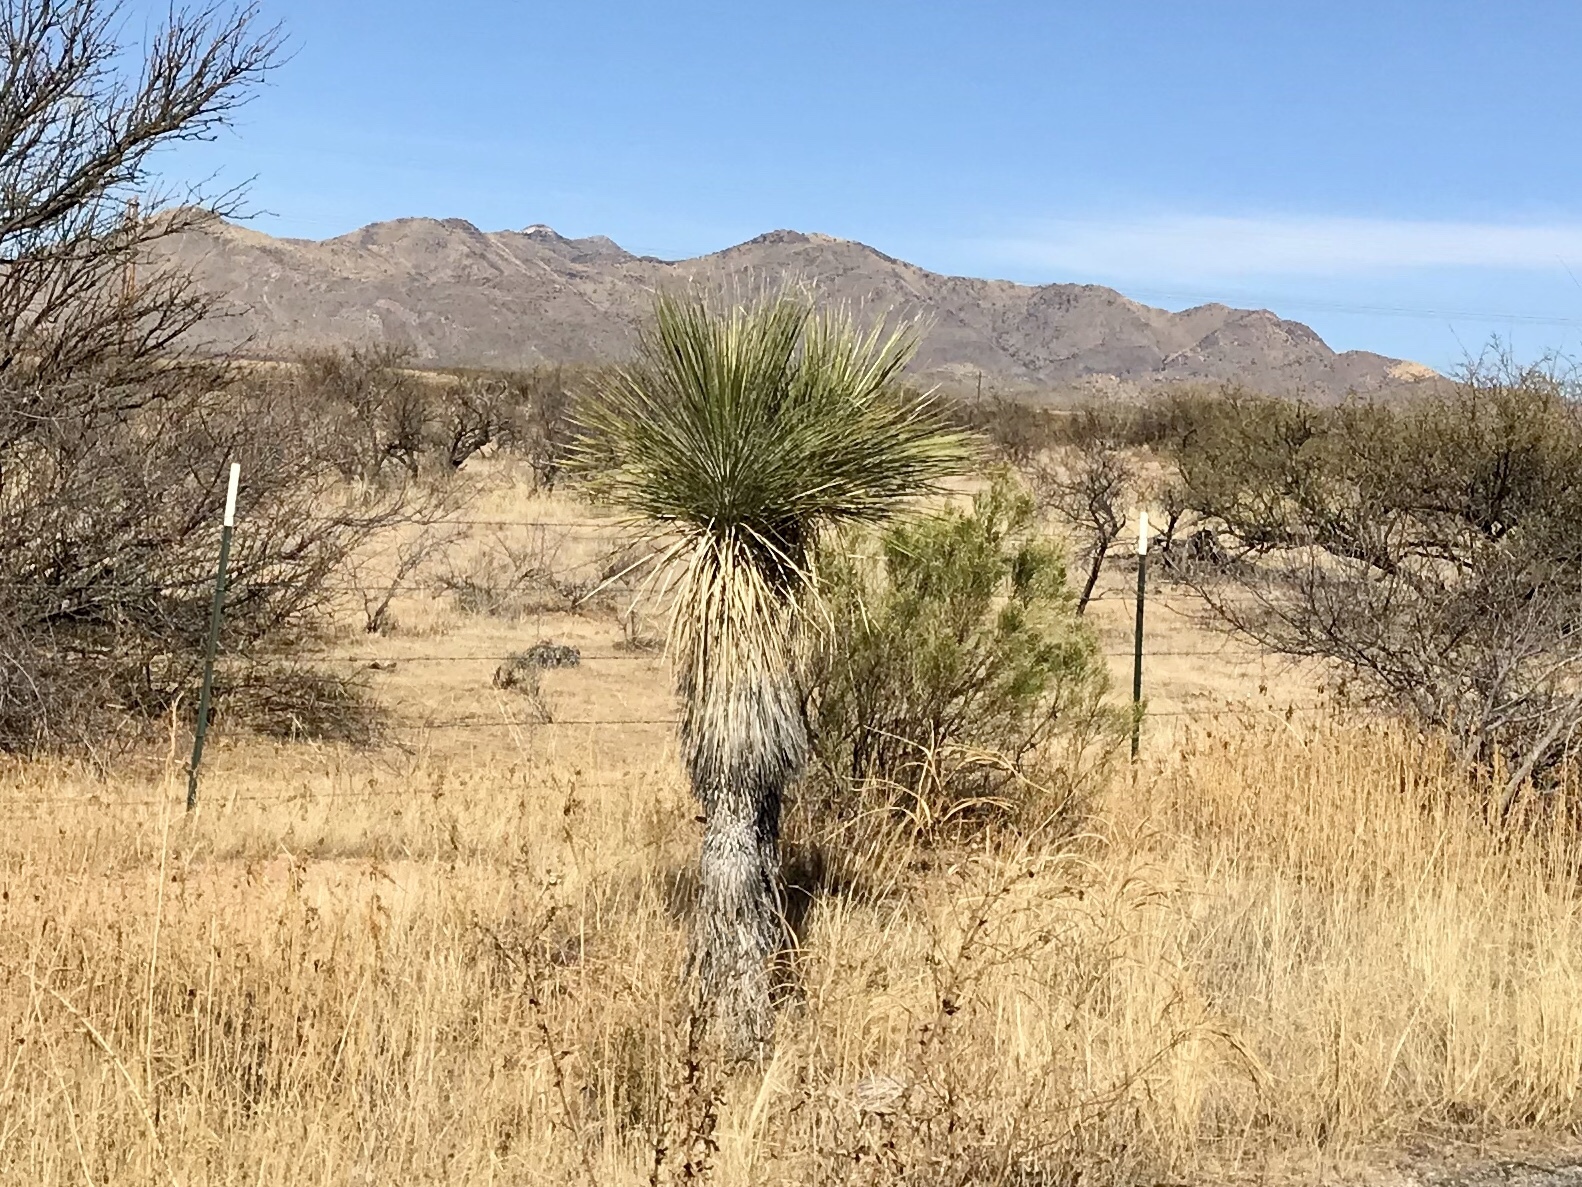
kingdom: Plantae
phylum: Tracheophyta
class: Liliopsida
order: Asparagales
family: Asparagaceae
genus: Yucca
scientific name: Yucca elata
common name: Palmella
